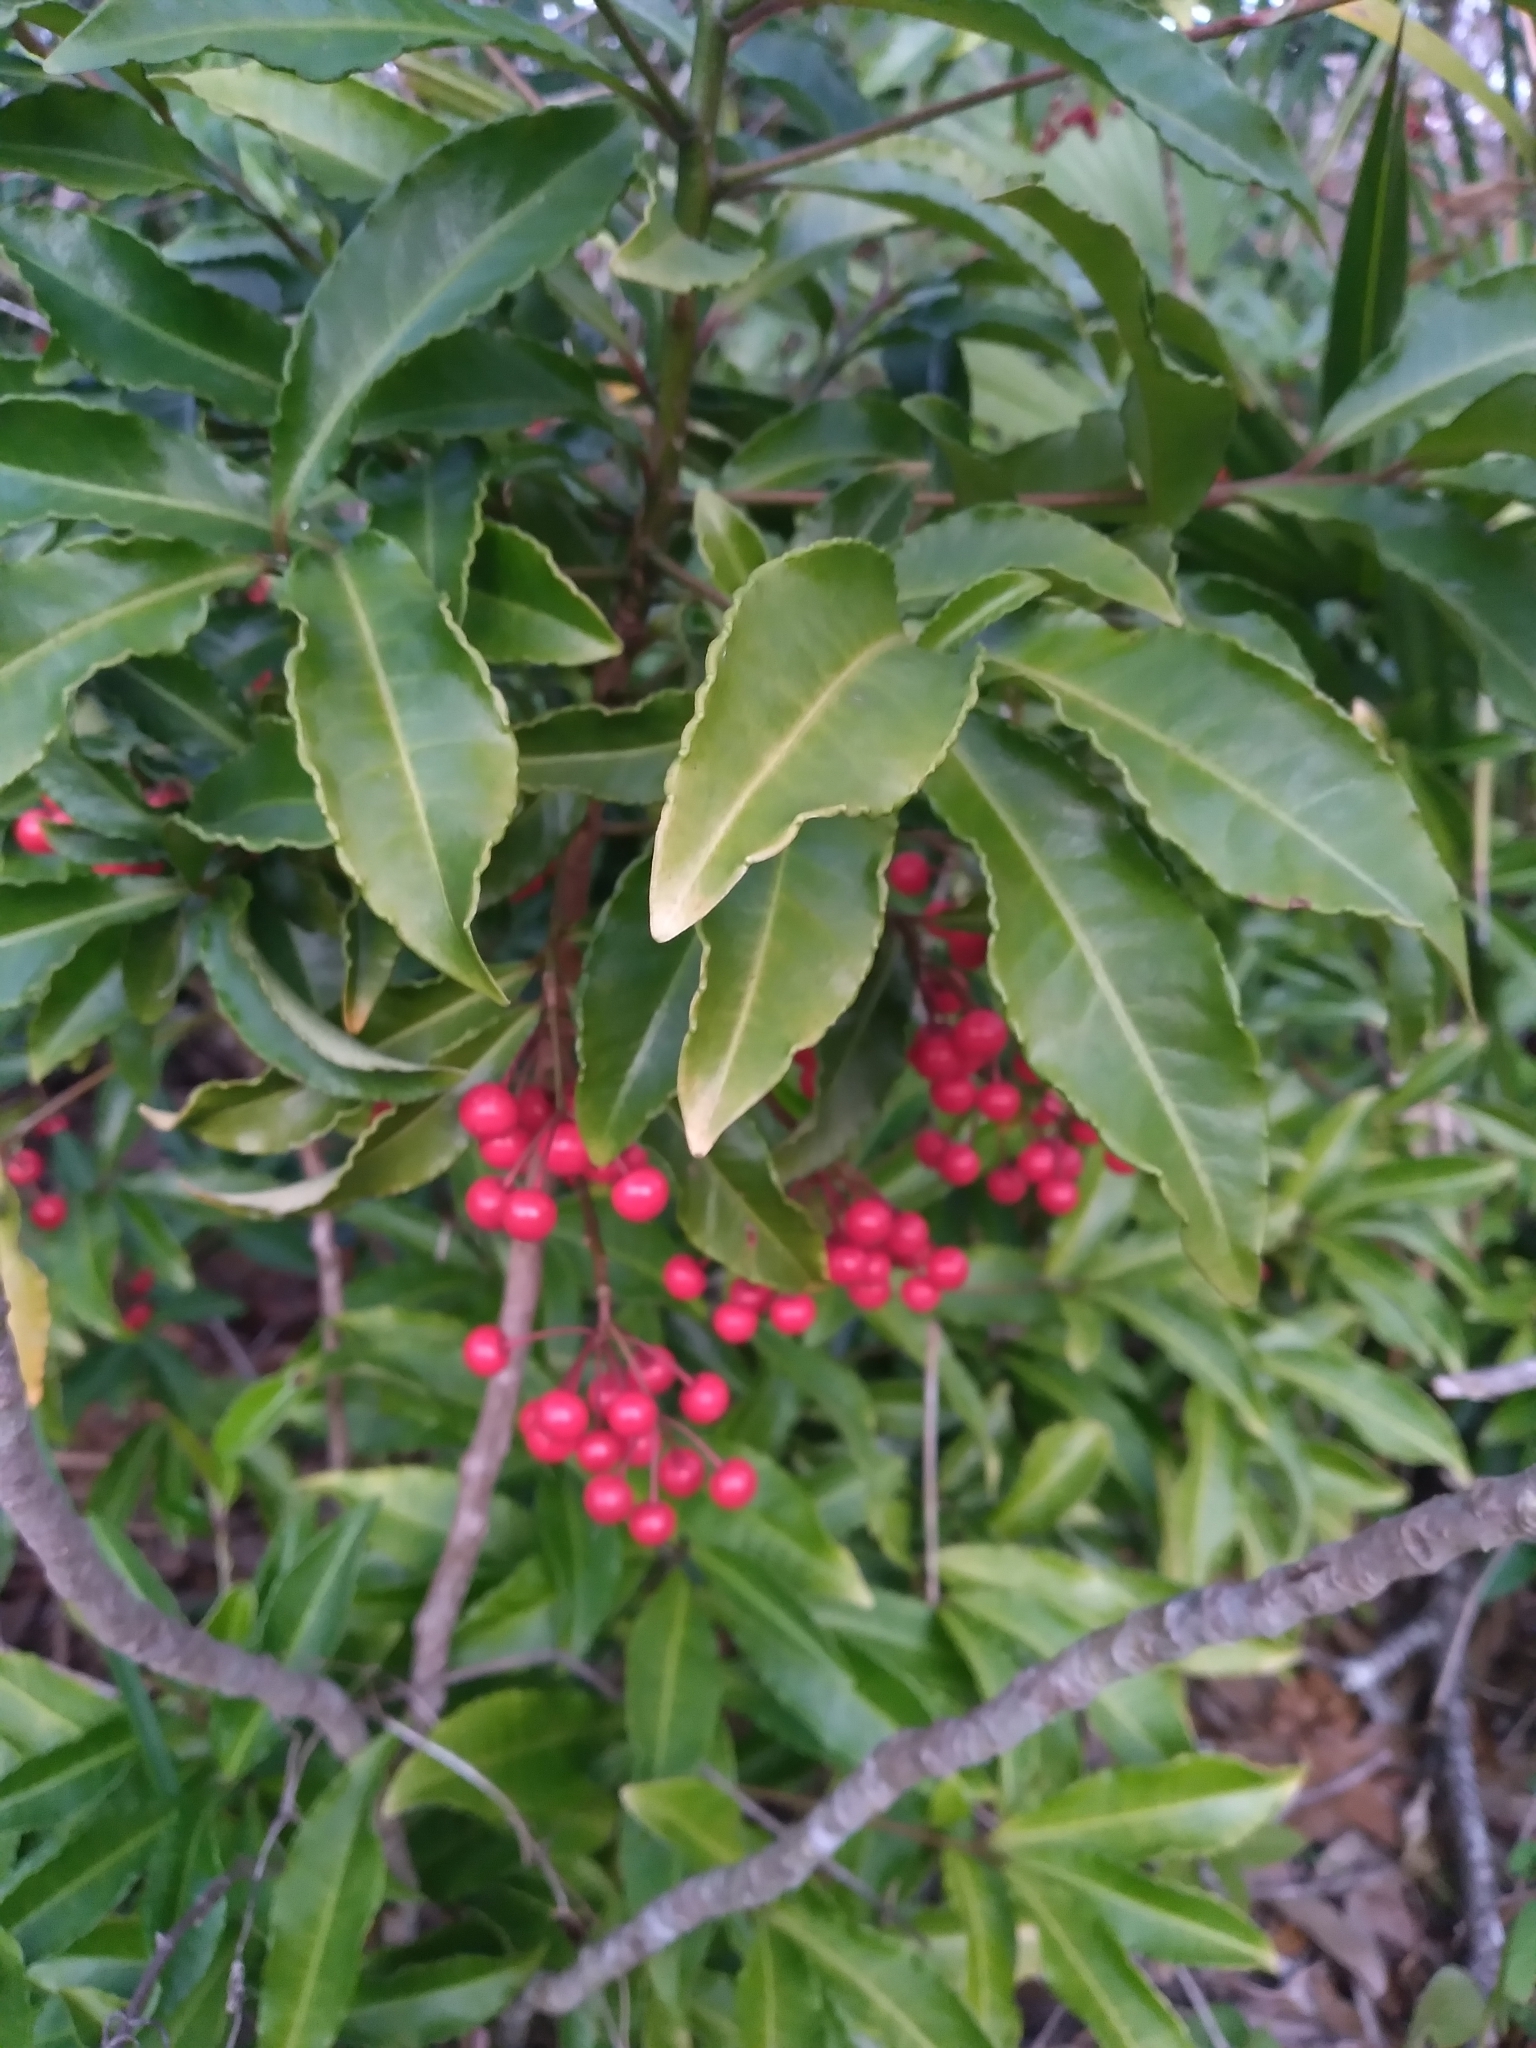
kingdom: Plantae
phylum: Tracheophyta
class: Magnoliopsida
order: Ericales
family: Primulaceae
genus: Ardisia
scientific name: Ardisia crenata
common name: Hen's eyes
